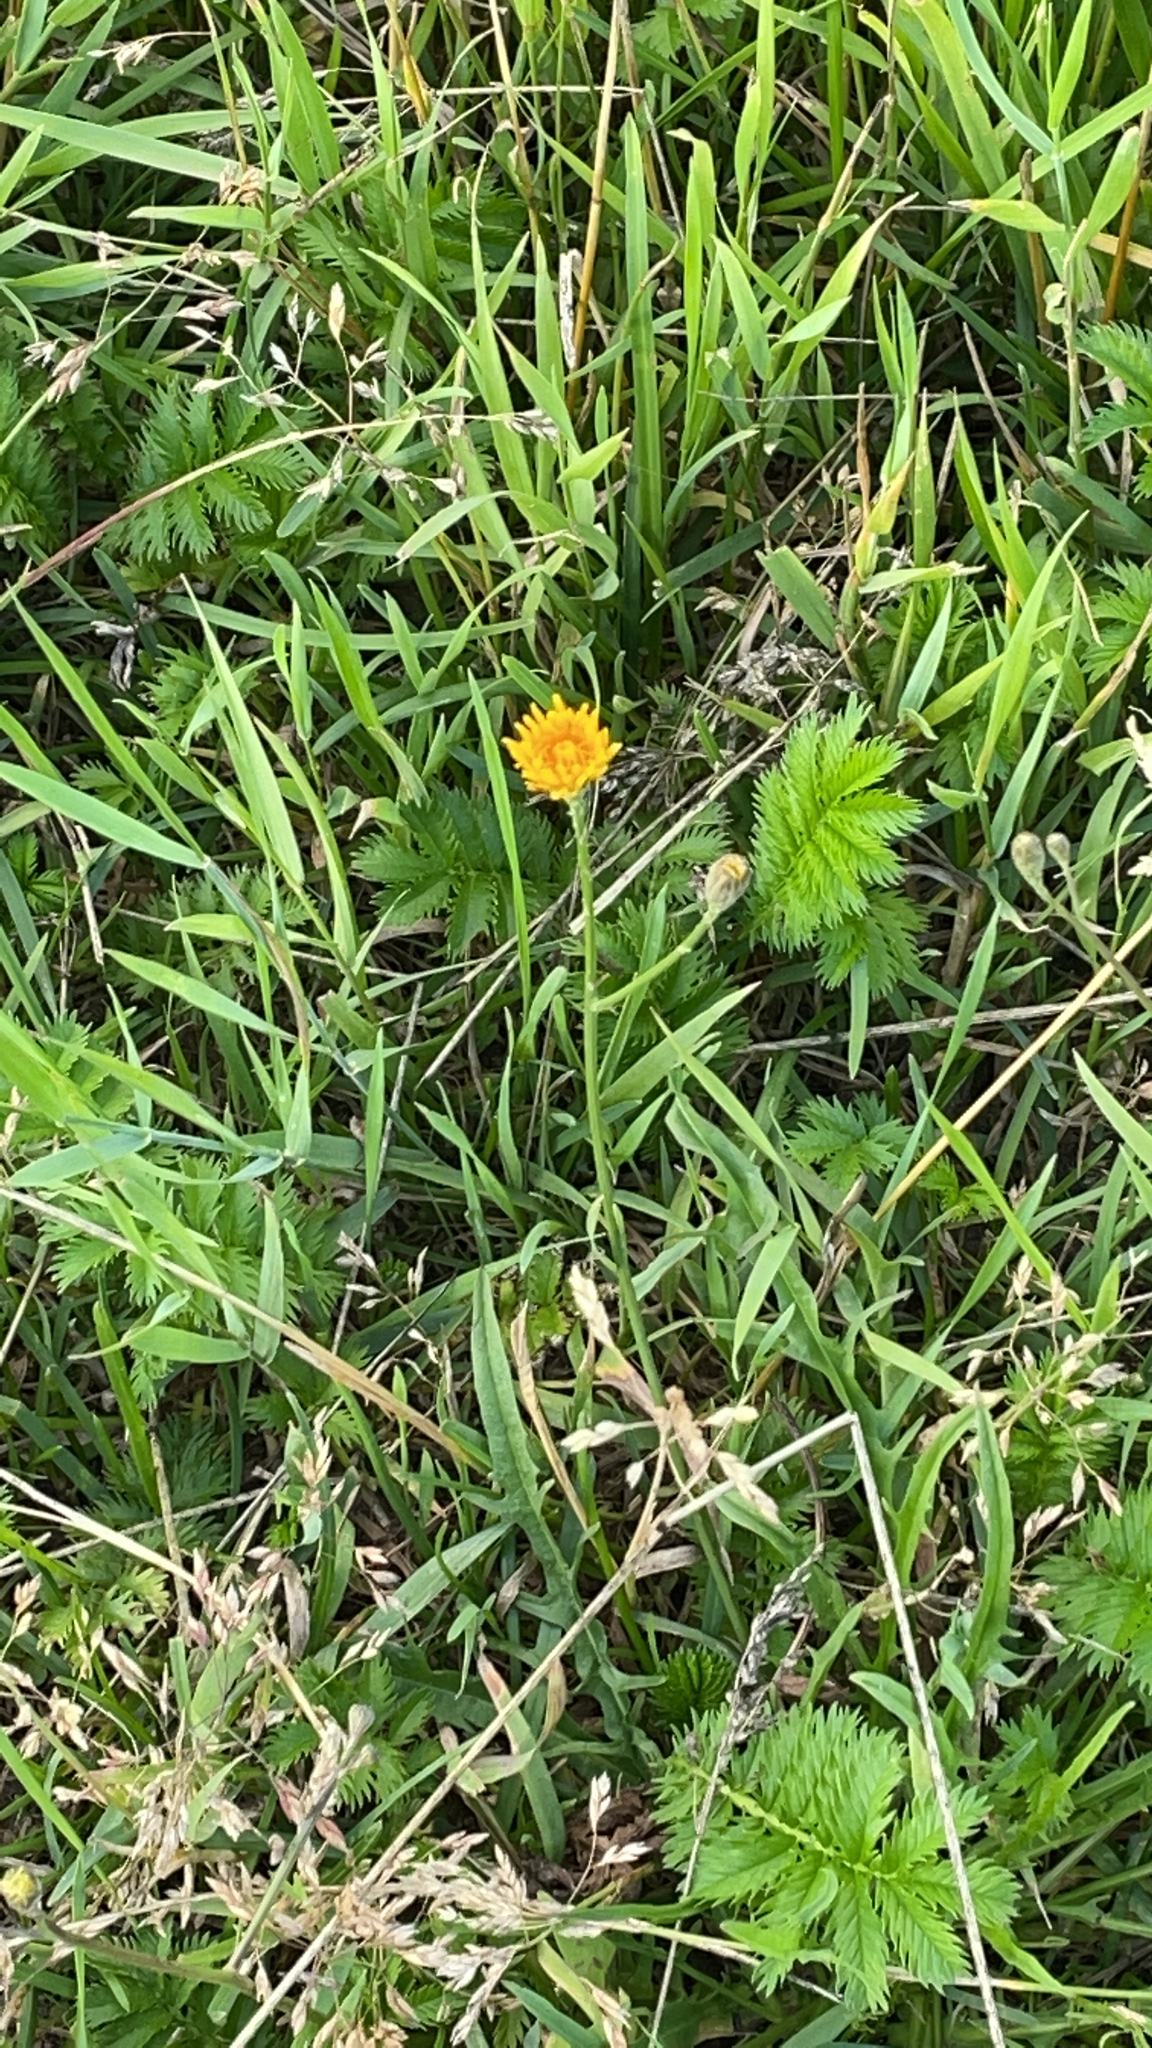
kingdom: Plantae
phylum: Tracheophyta
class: Magnoliopsida
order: Asterales
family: Asteraceae
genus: Scorzoneroides
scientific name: Scorzoneroides autumnalis
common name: Autumn hawkbit
